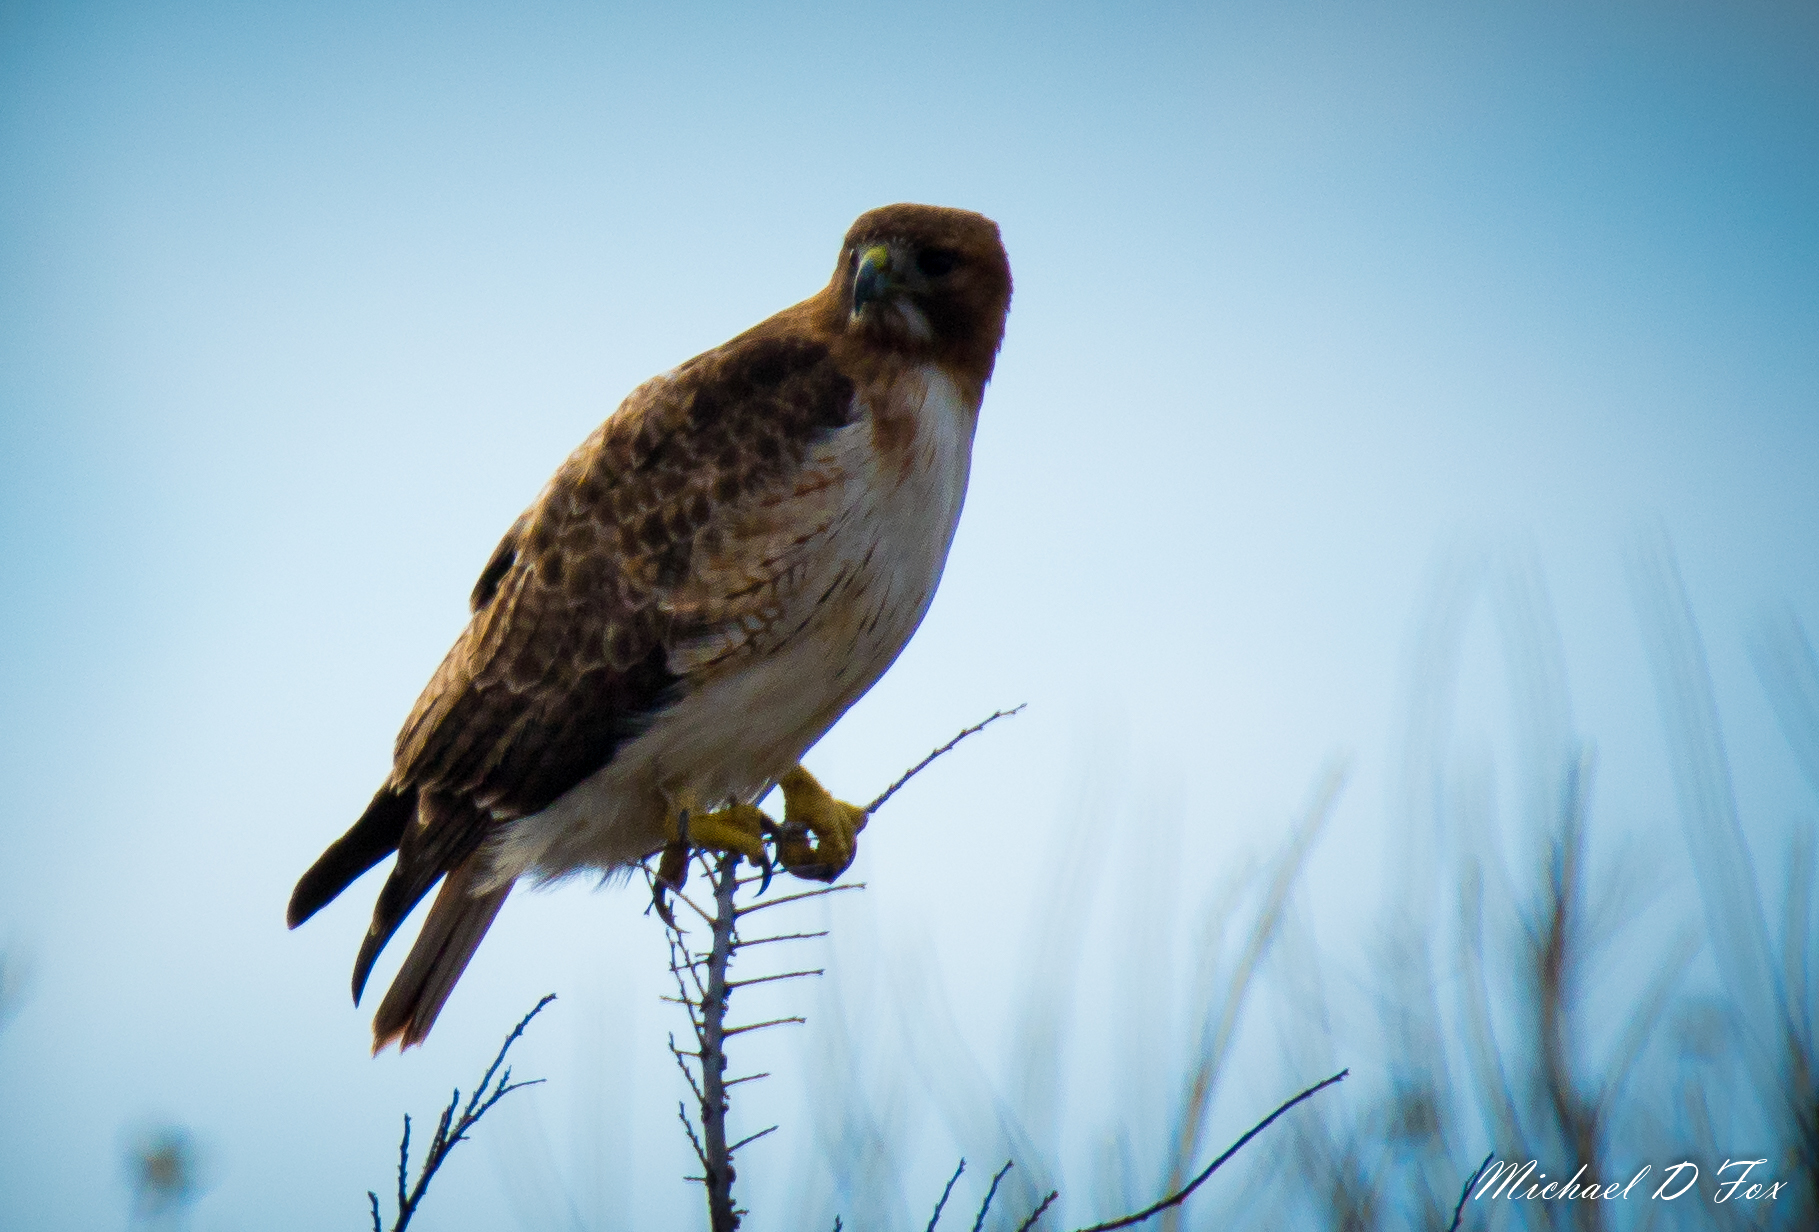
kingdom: Animalia
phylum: Chordata
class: Aves
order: Accipitriformes
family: Accipitridae
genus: Buteo
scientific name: Buteo jamaicensis
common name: Red-tailed hawk
